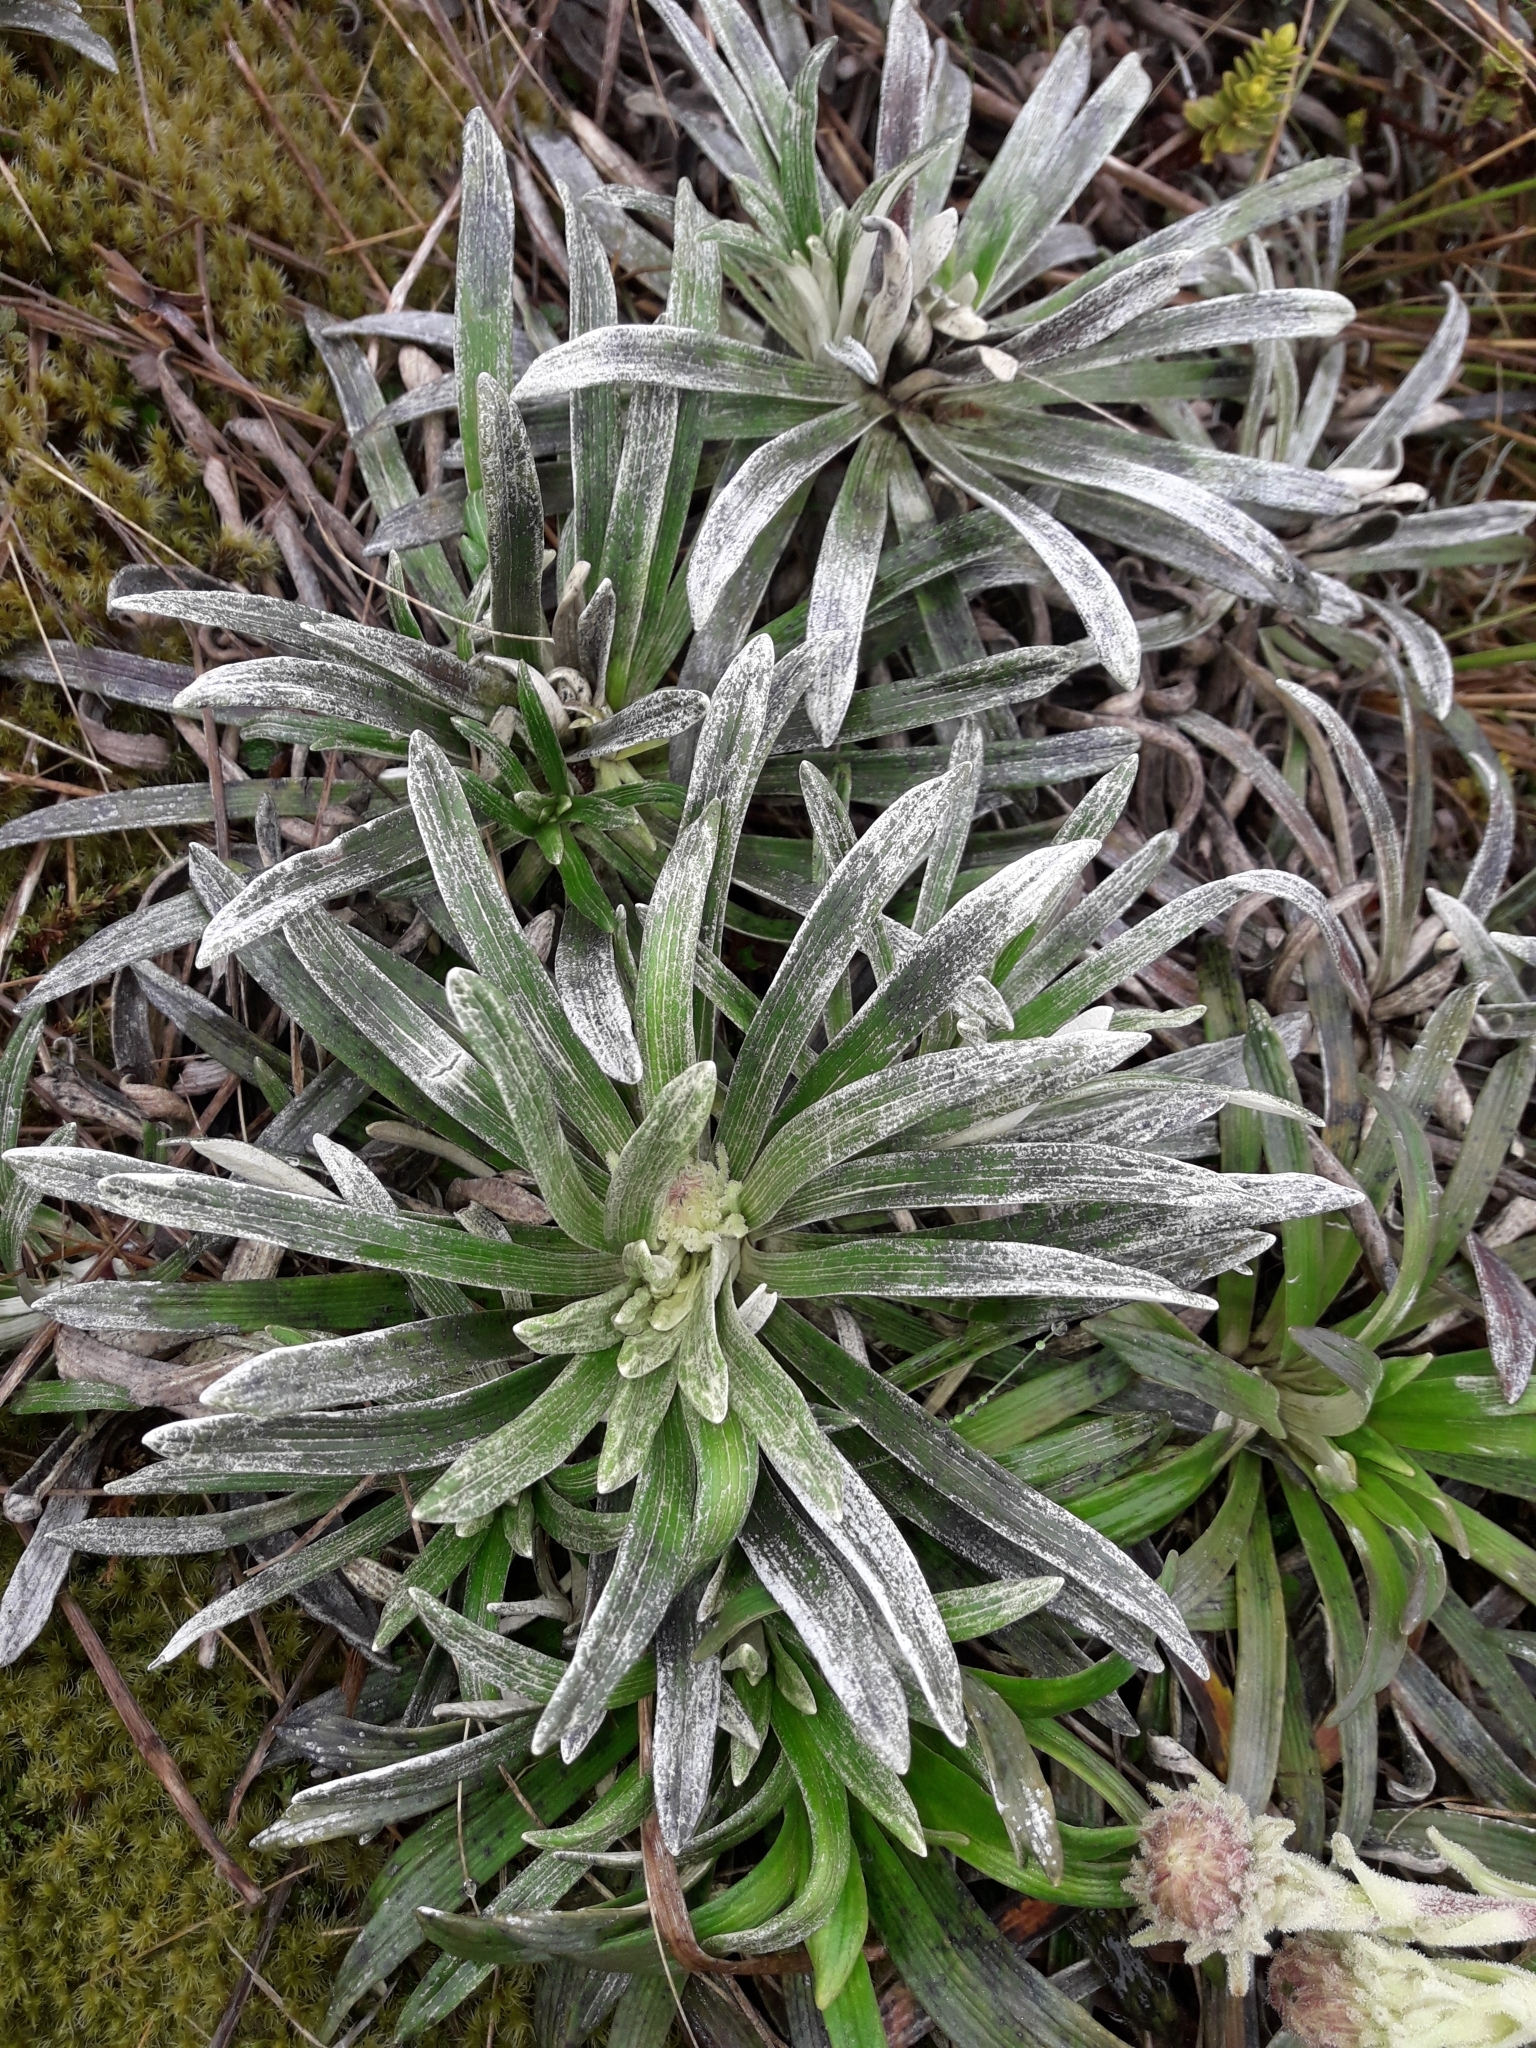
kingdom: Plantae
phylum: Tracheophyta
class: Magnoliopsida
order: Asterales
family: Asteraceae
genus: Celmisia
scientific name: Celmisia viscosa
